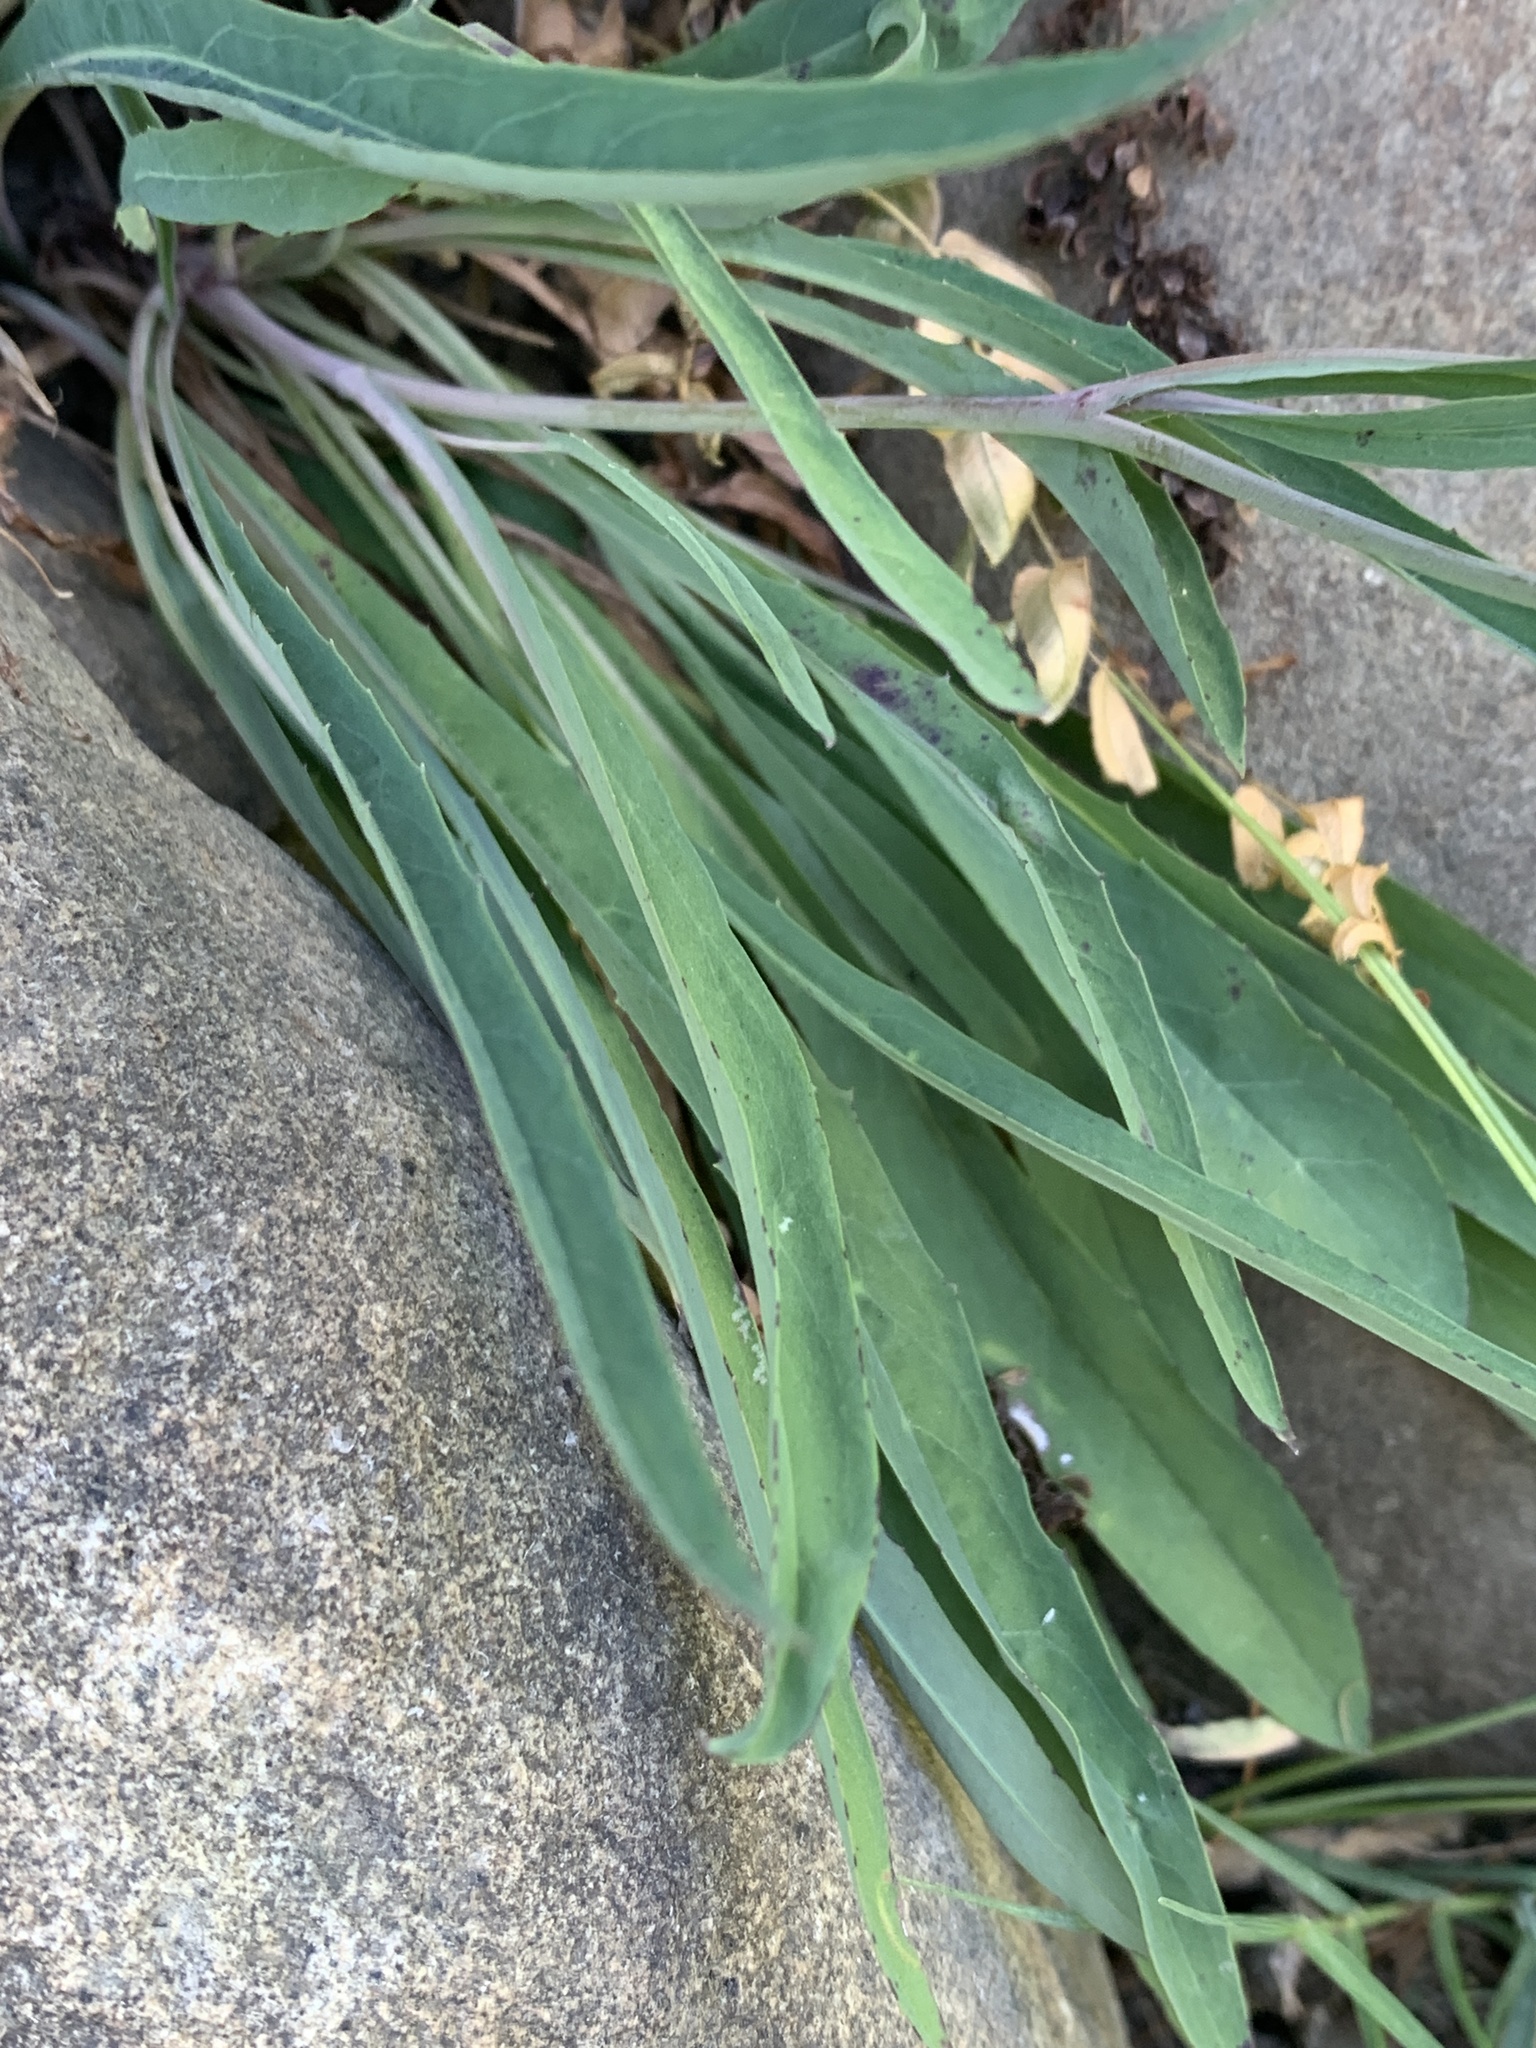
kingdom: Plantae
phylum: Tracheophyta
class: Magnoliopsida
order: Asterales
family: Asteraceae
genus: Ixeris
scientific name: Ixeris chinensis
